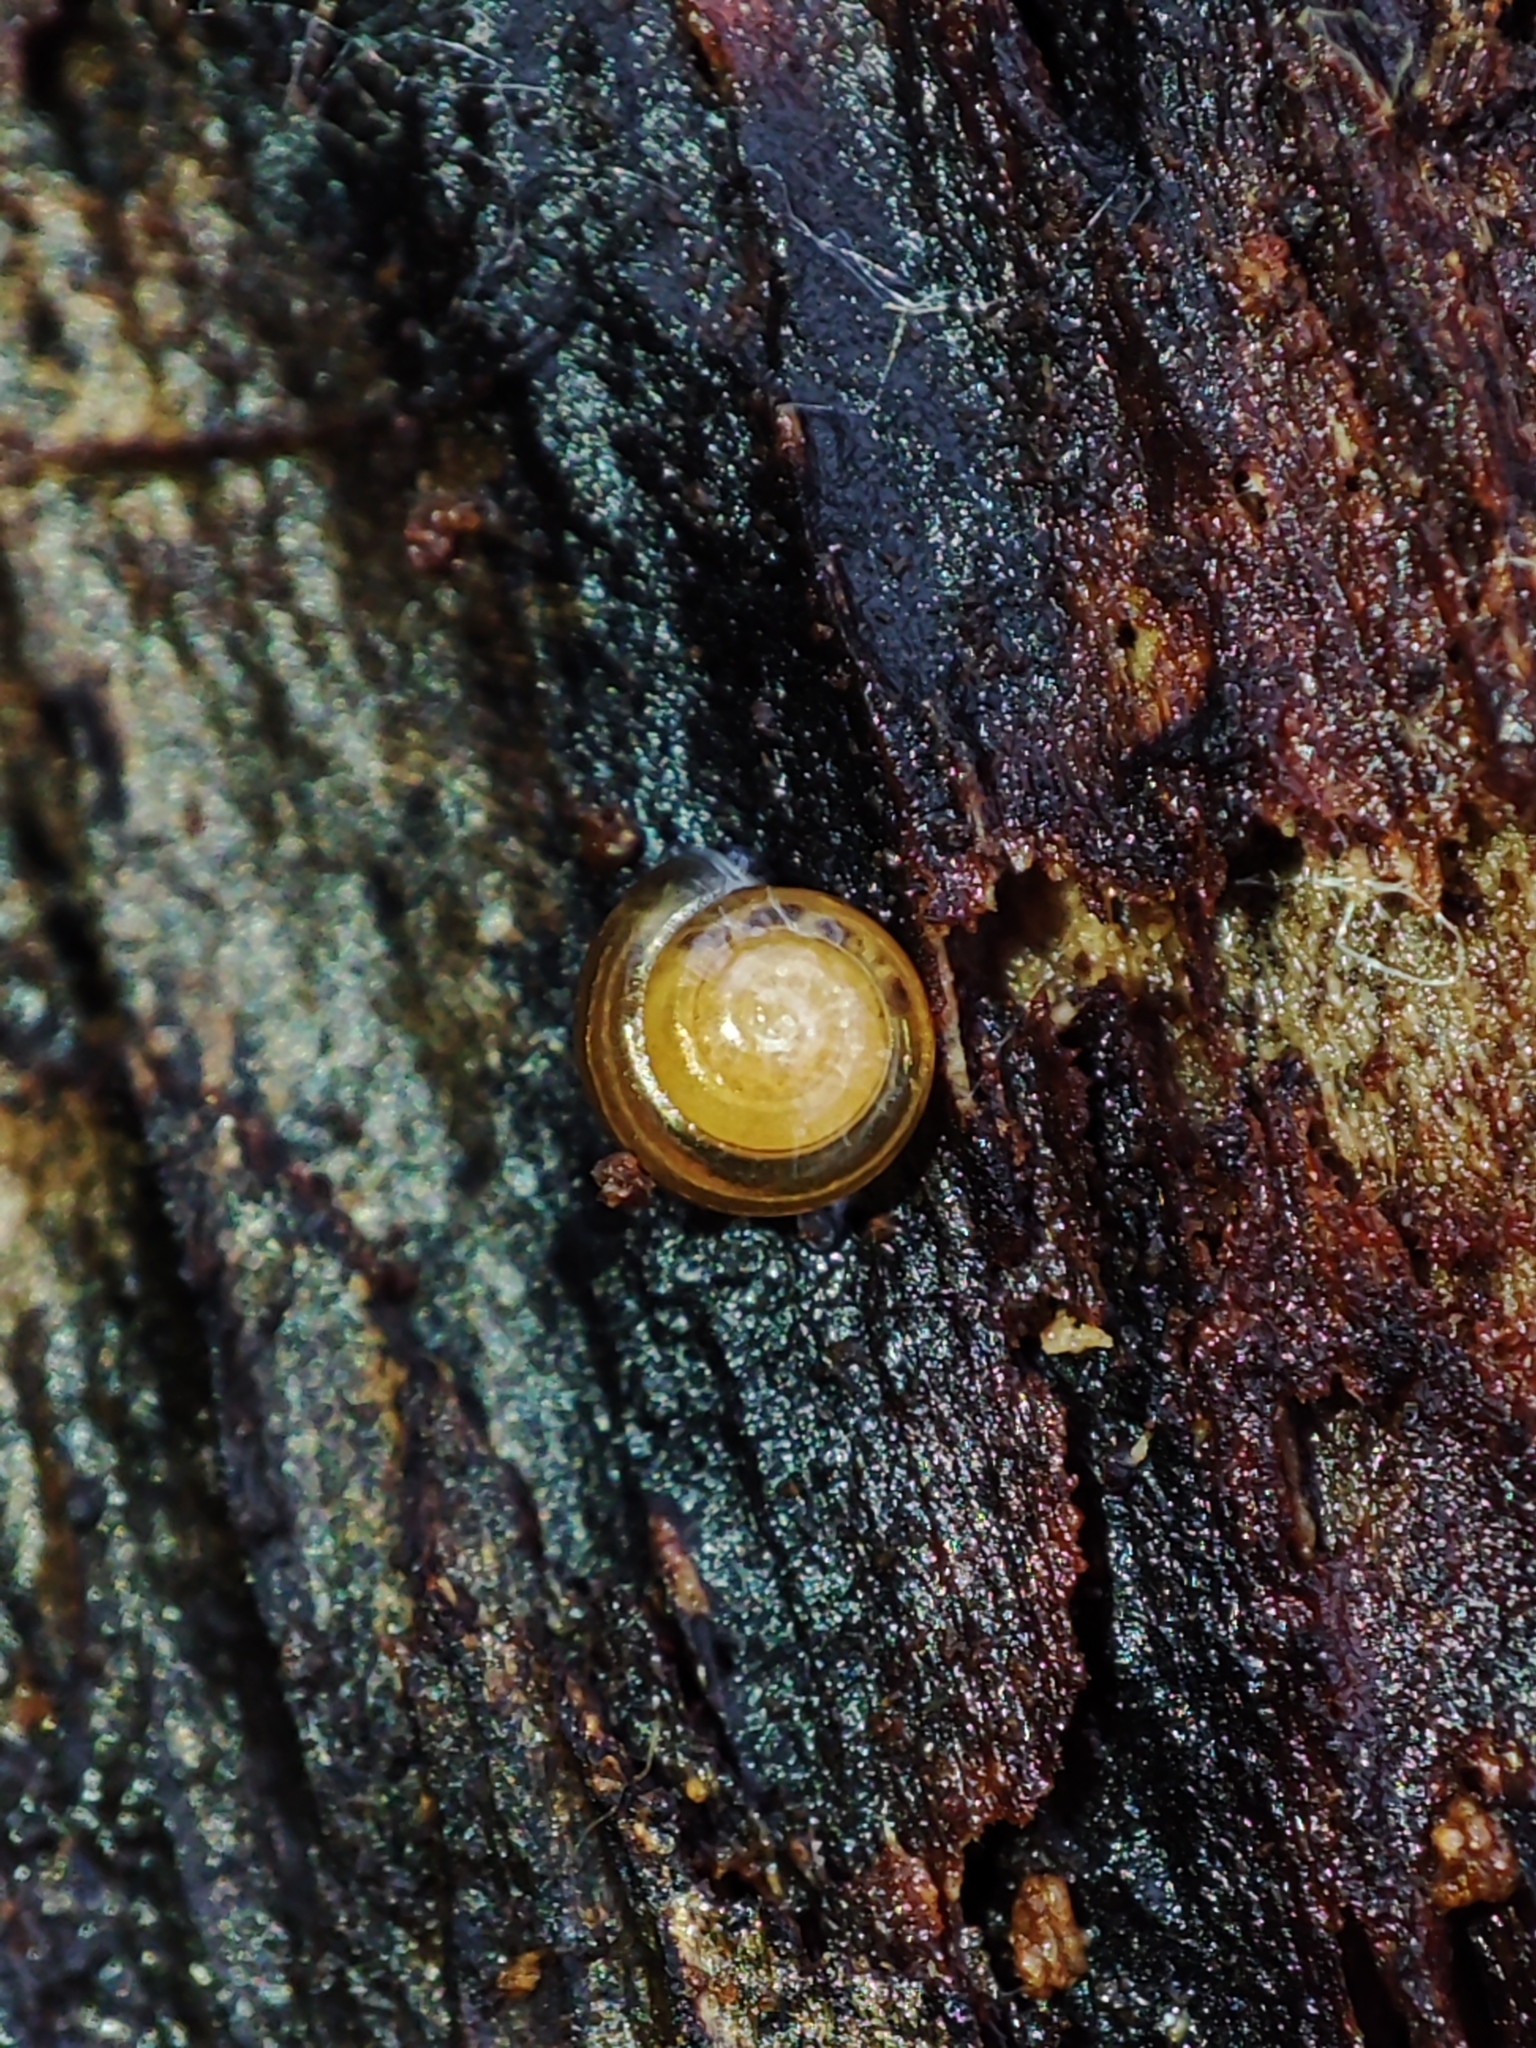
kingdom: Animalia
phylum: Mollusca
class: Gastropoda
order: Stylommatophora
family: Euconulidae
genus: Euconulus
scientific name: Euconulus fulvus
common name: Tawny glass snail
